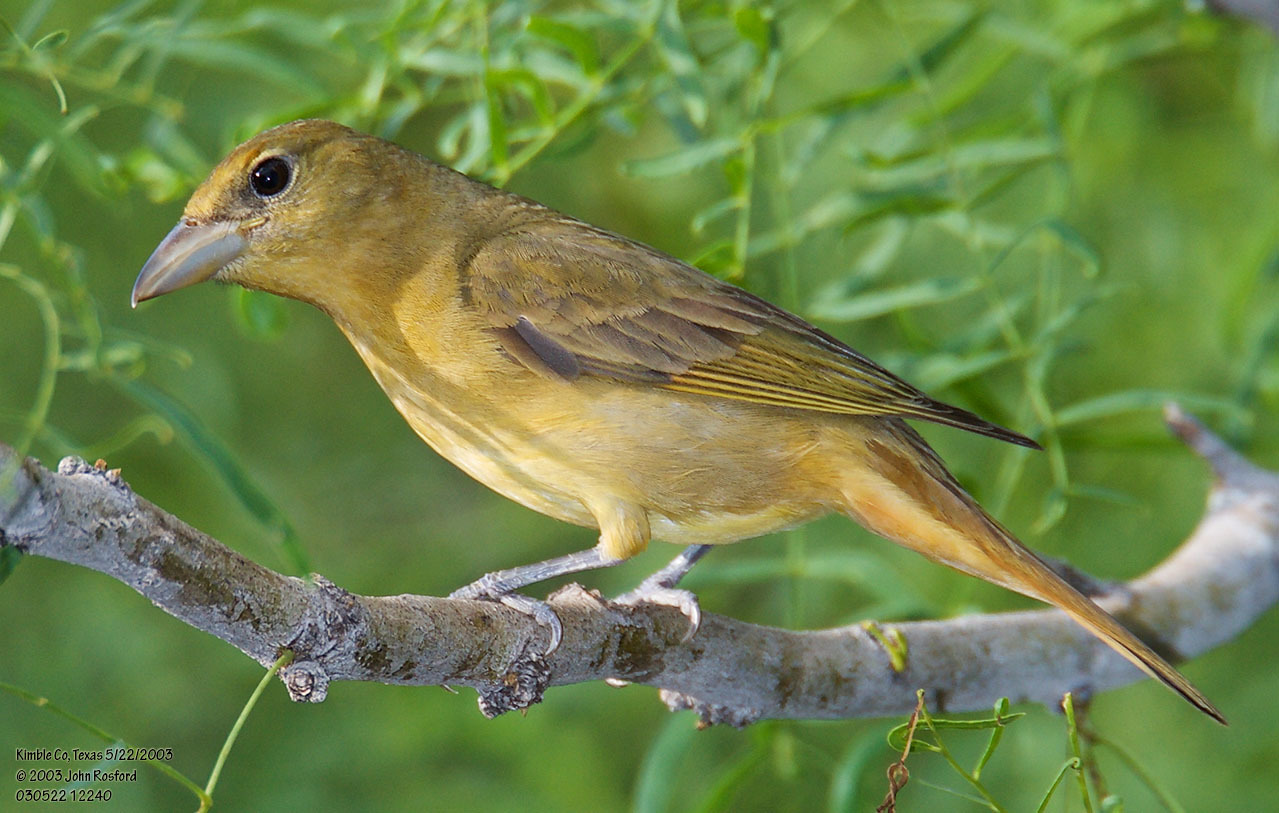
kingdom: Animalia
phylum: Chordata
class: Aves
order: Passeriformes
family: Cardinalidae
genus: Piranga
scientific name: Piranga rubra
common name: Summer tanager
